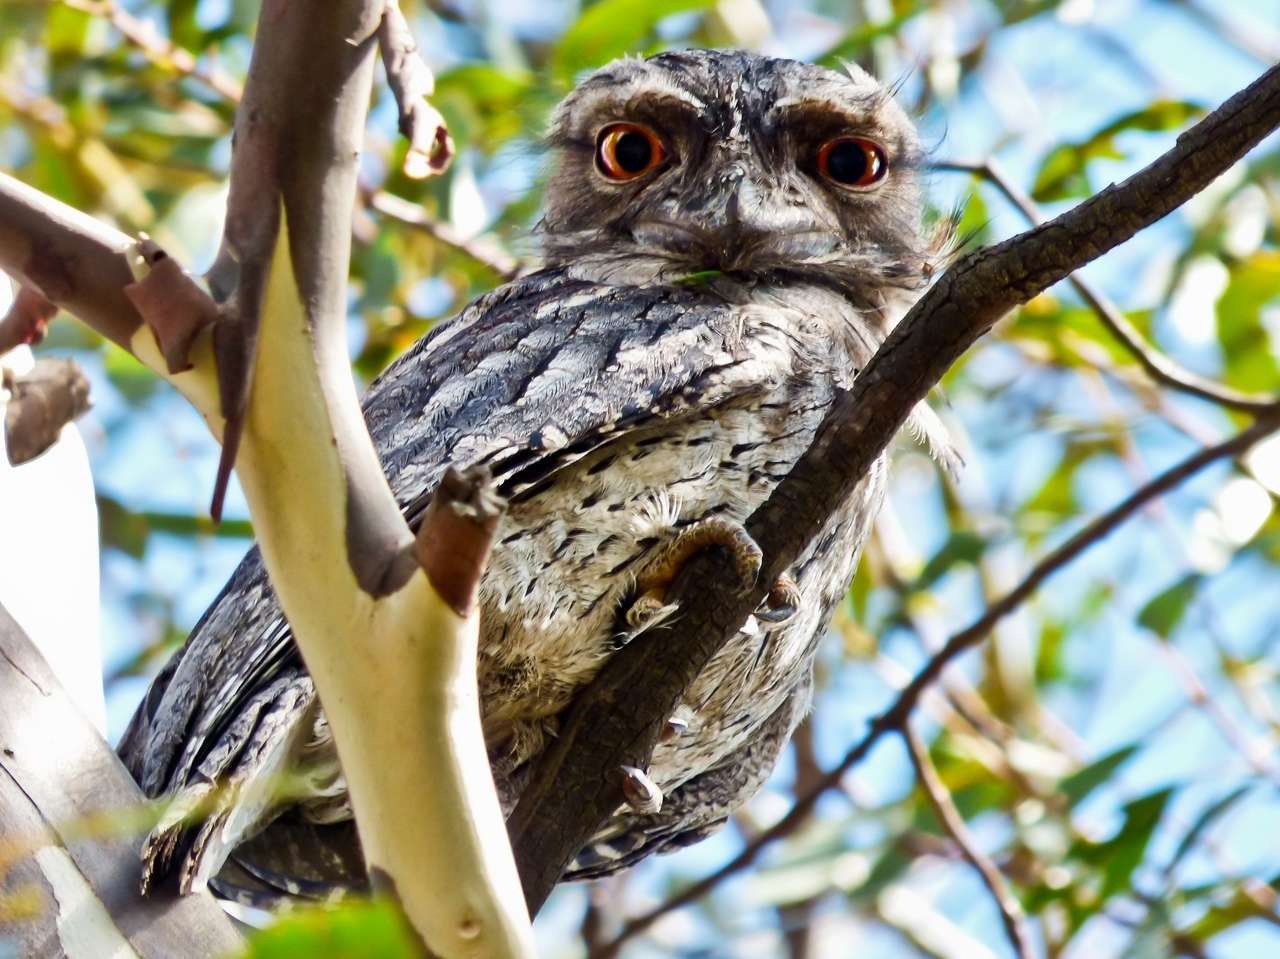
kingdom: Animalia
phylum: Chordata
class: Aves
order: Caprimulgiformes
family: Podargidae
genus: Podargus
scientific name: Podargus strigoides
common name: Tawny frogmouth
